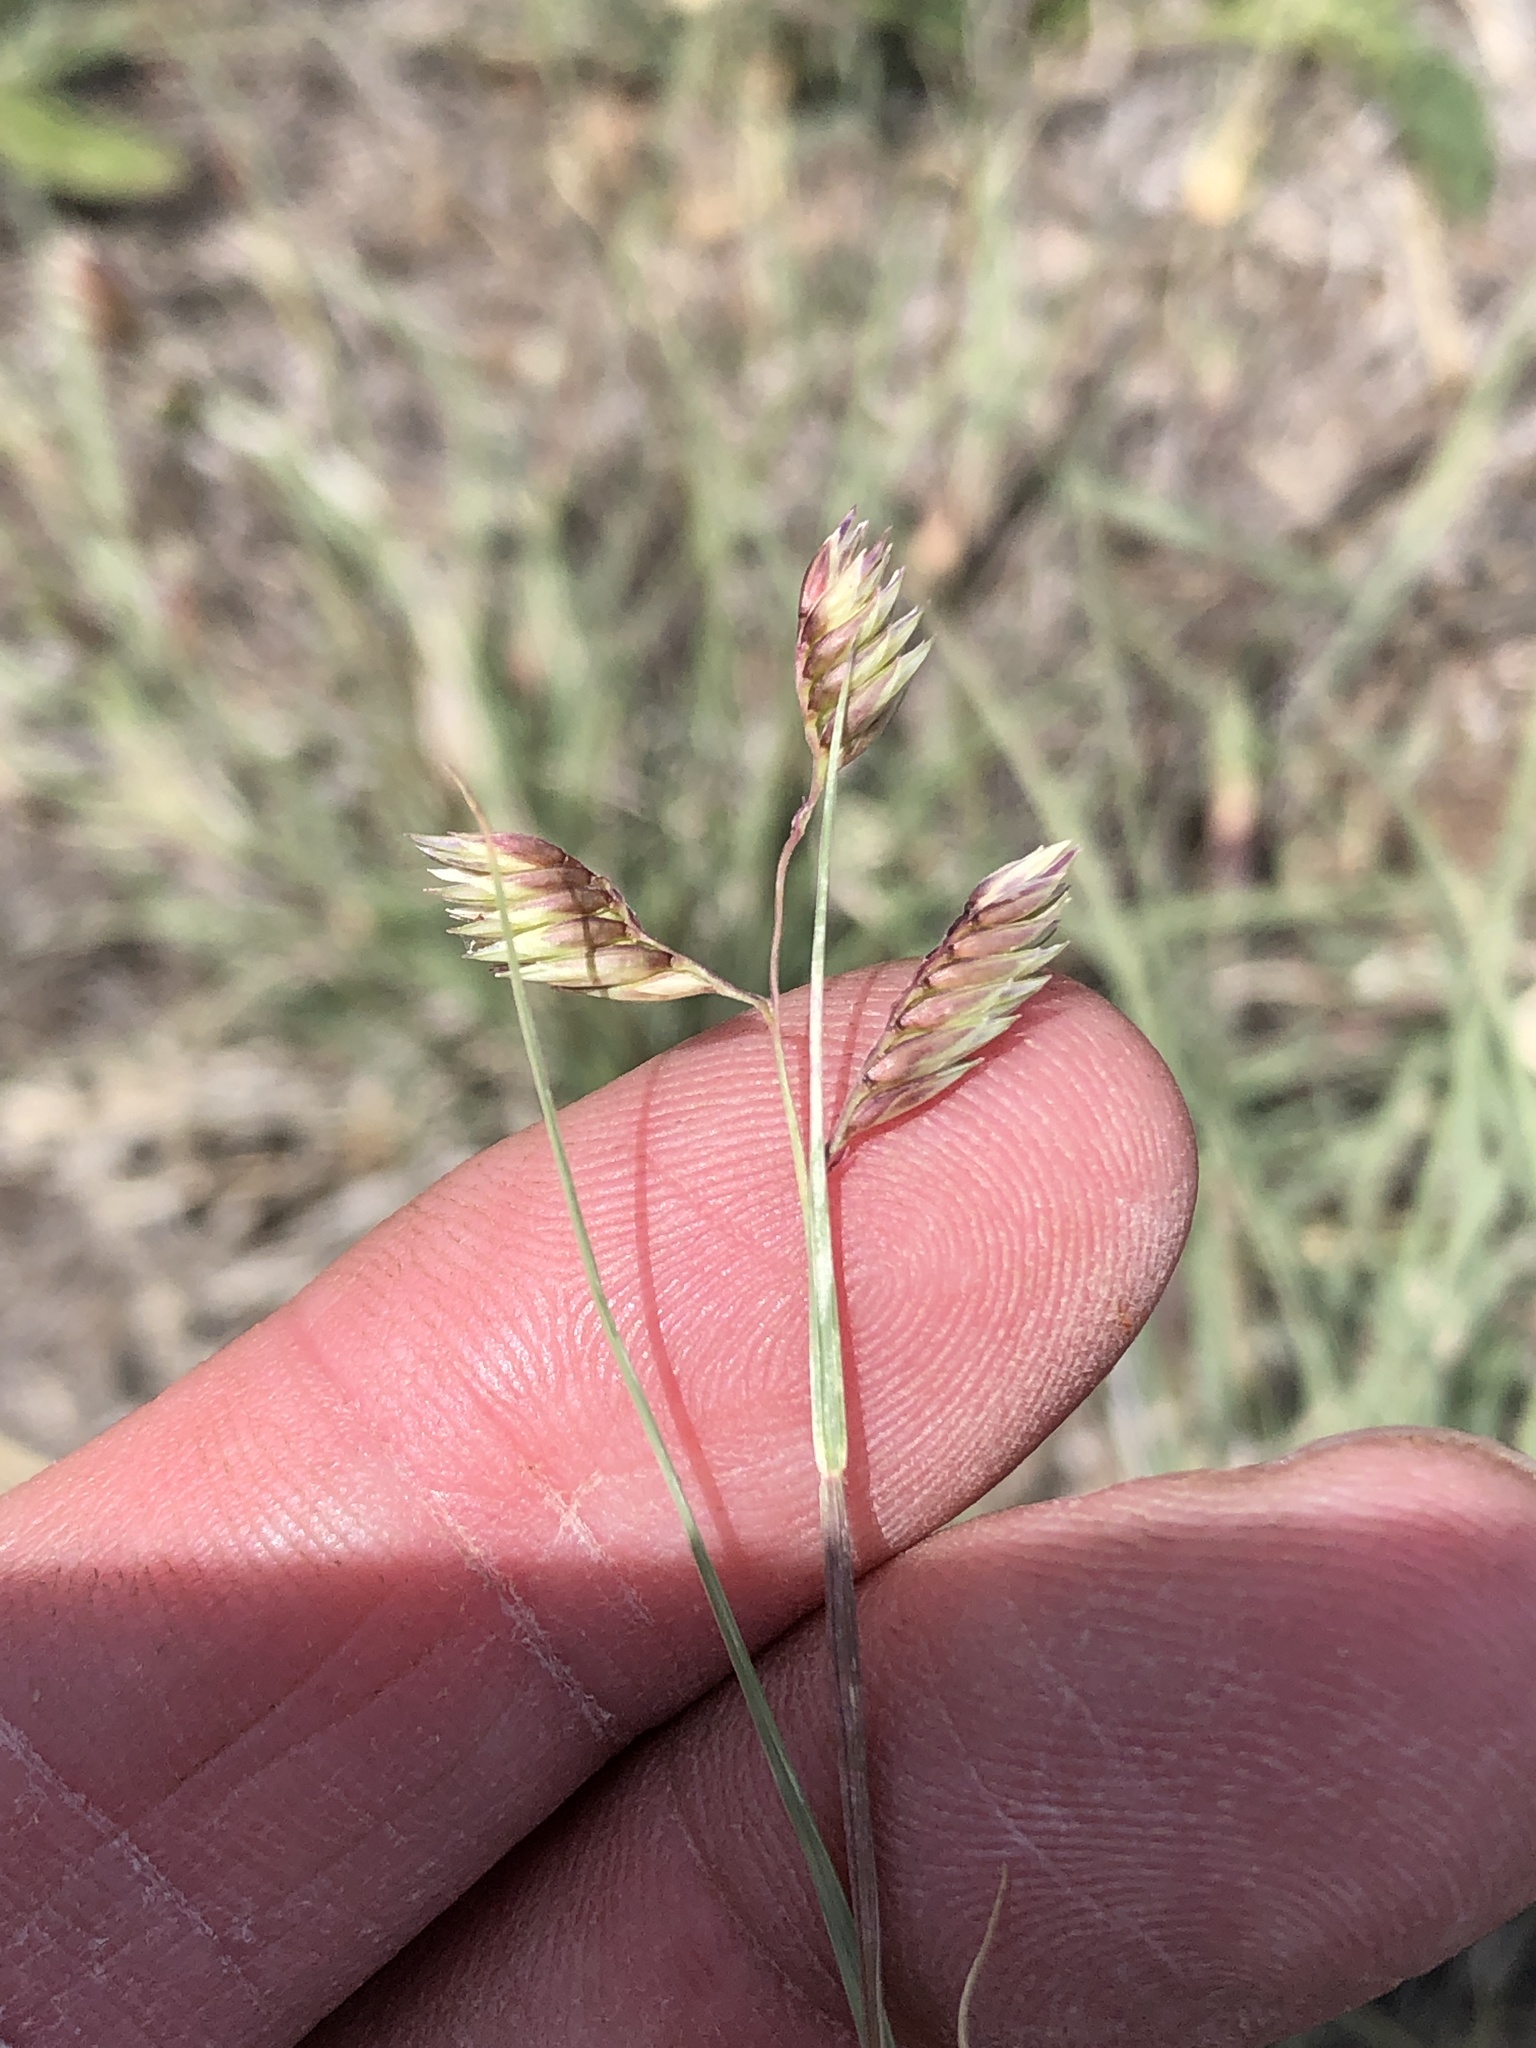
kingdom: Plantae
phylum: Tracheophyta
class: Liliopsida
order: Poales
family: Poaceae
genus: Bouteloua
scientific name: Bouteloua dactyloides
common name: Buffalo grass
